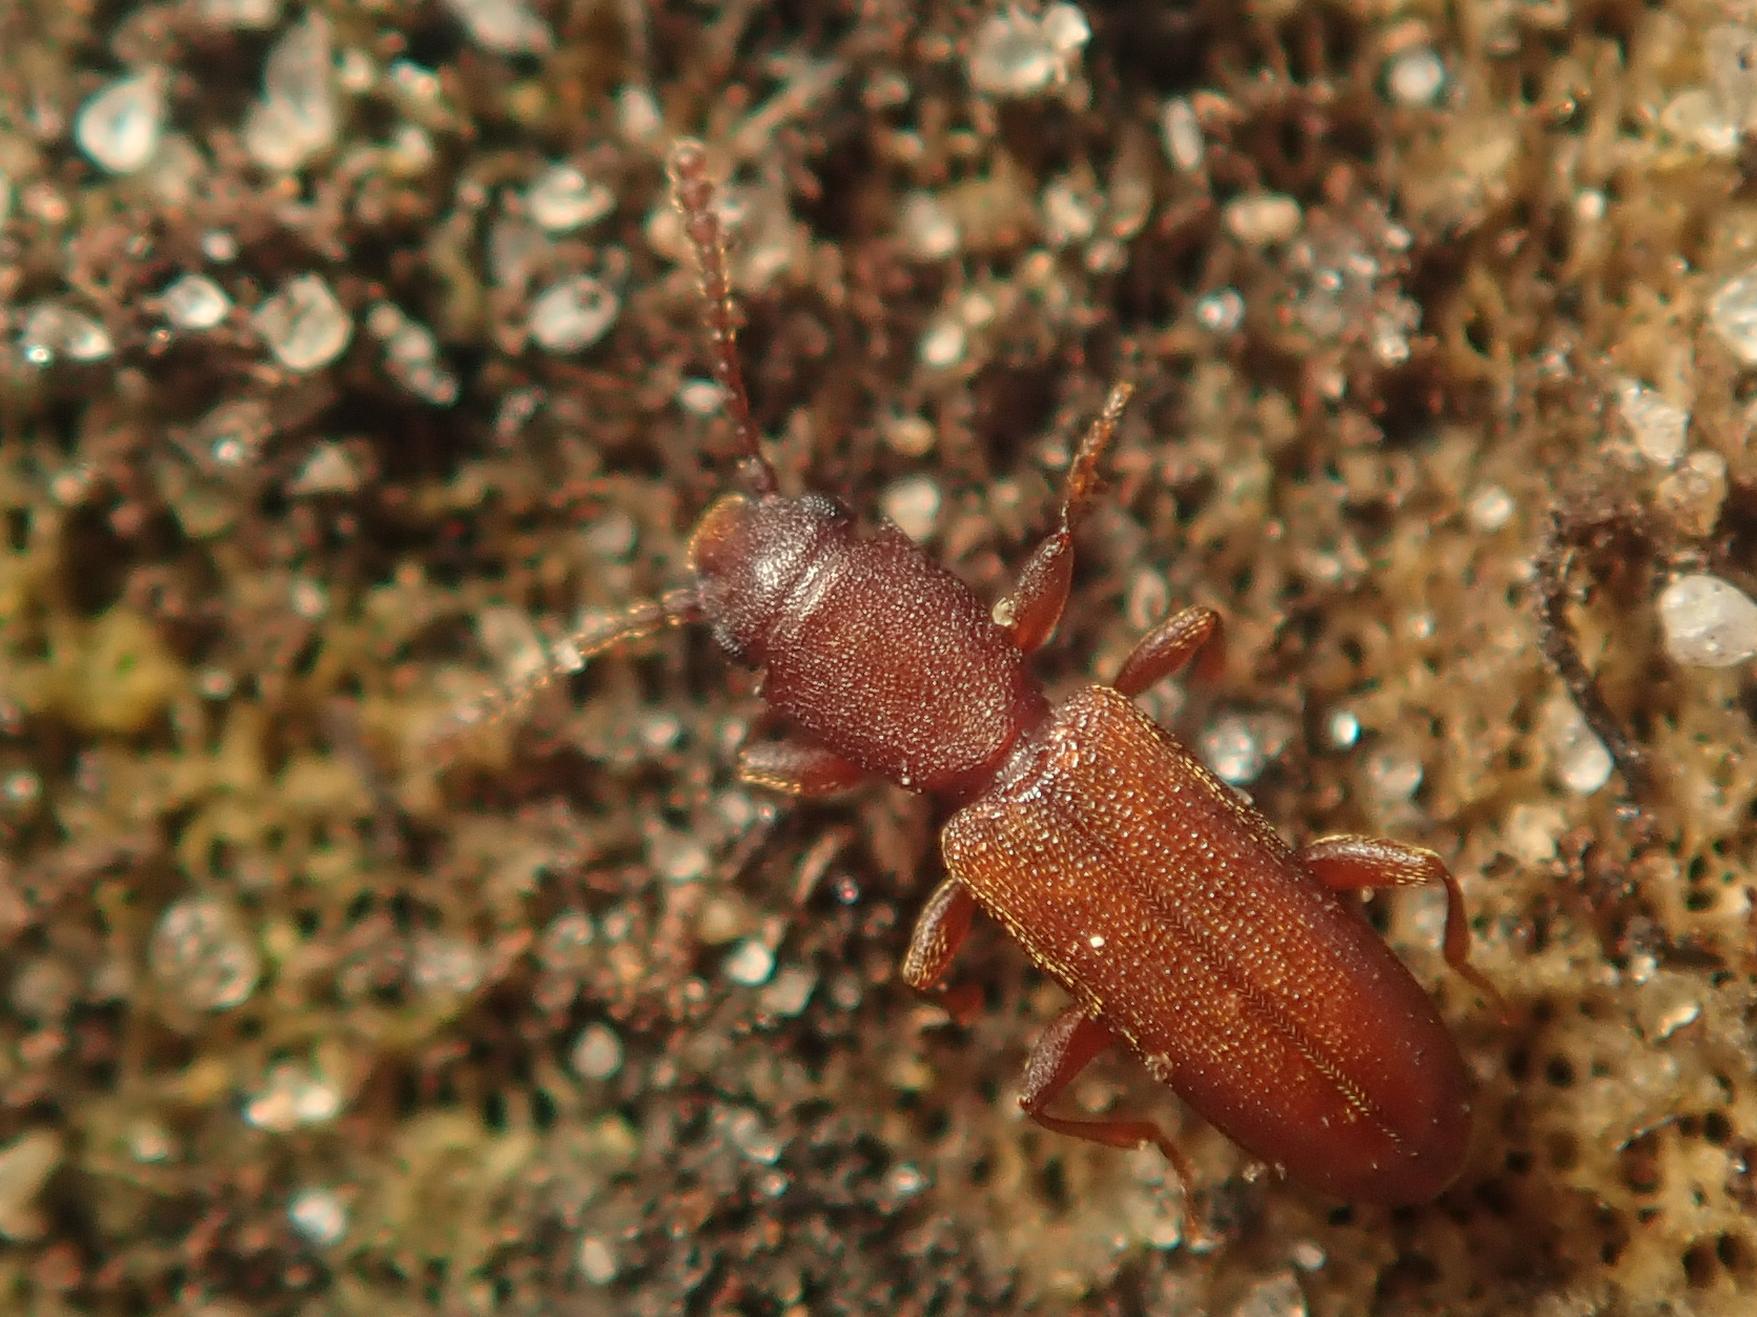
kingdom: Animalia
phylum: Arthropoda
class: Insecta
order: Coleoptera
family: Silvanidae
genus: Silvanus
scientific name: Silvanus unidentatus
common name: One-toothed silvan flat bark beetle
